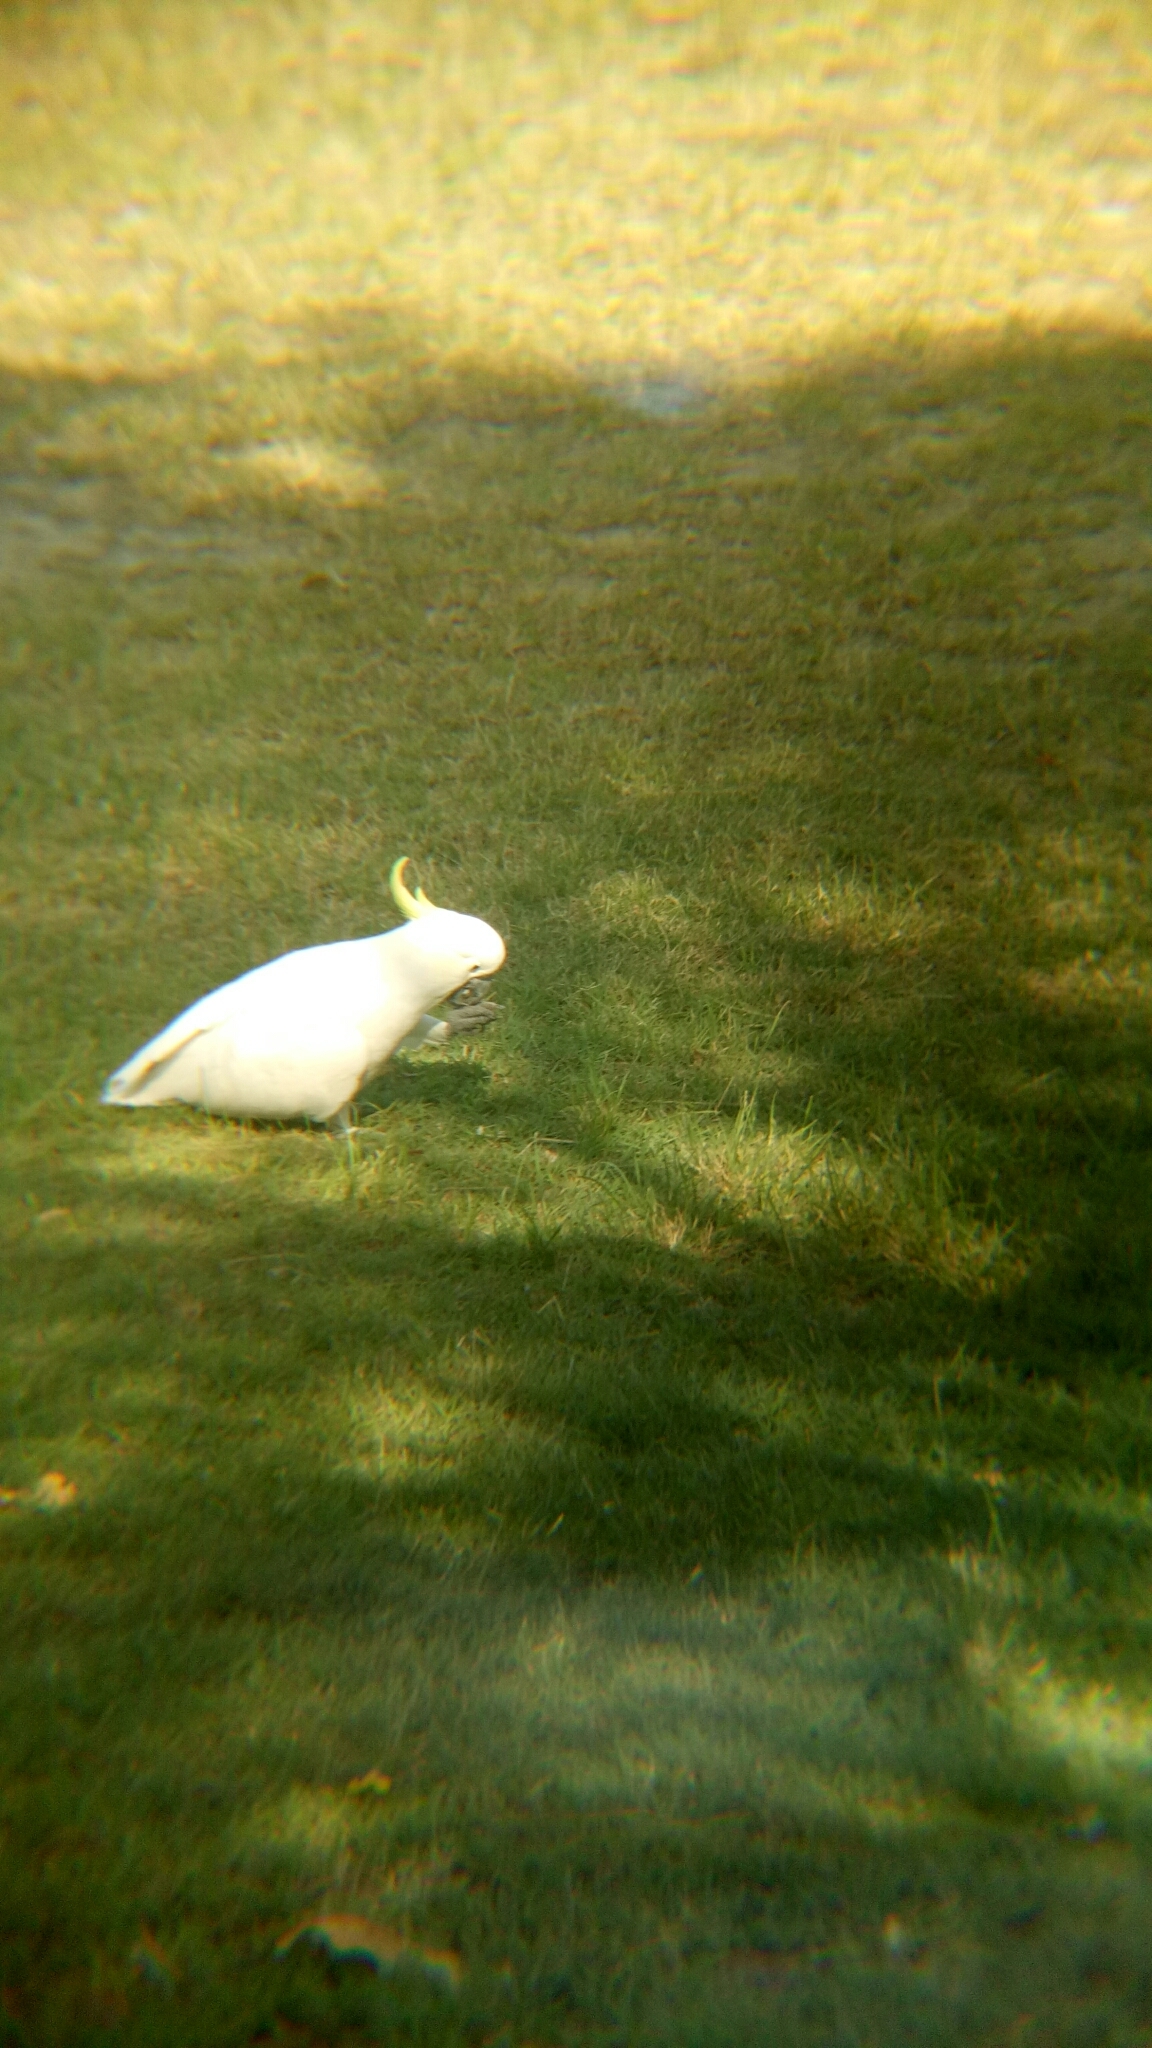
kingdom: Animalia
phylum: Chordata
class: Aves
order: Psittaciformes
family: Psittacidae
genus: Cacatua
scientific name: Cacatua galerita
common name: Sulphur-crested cockatoo
